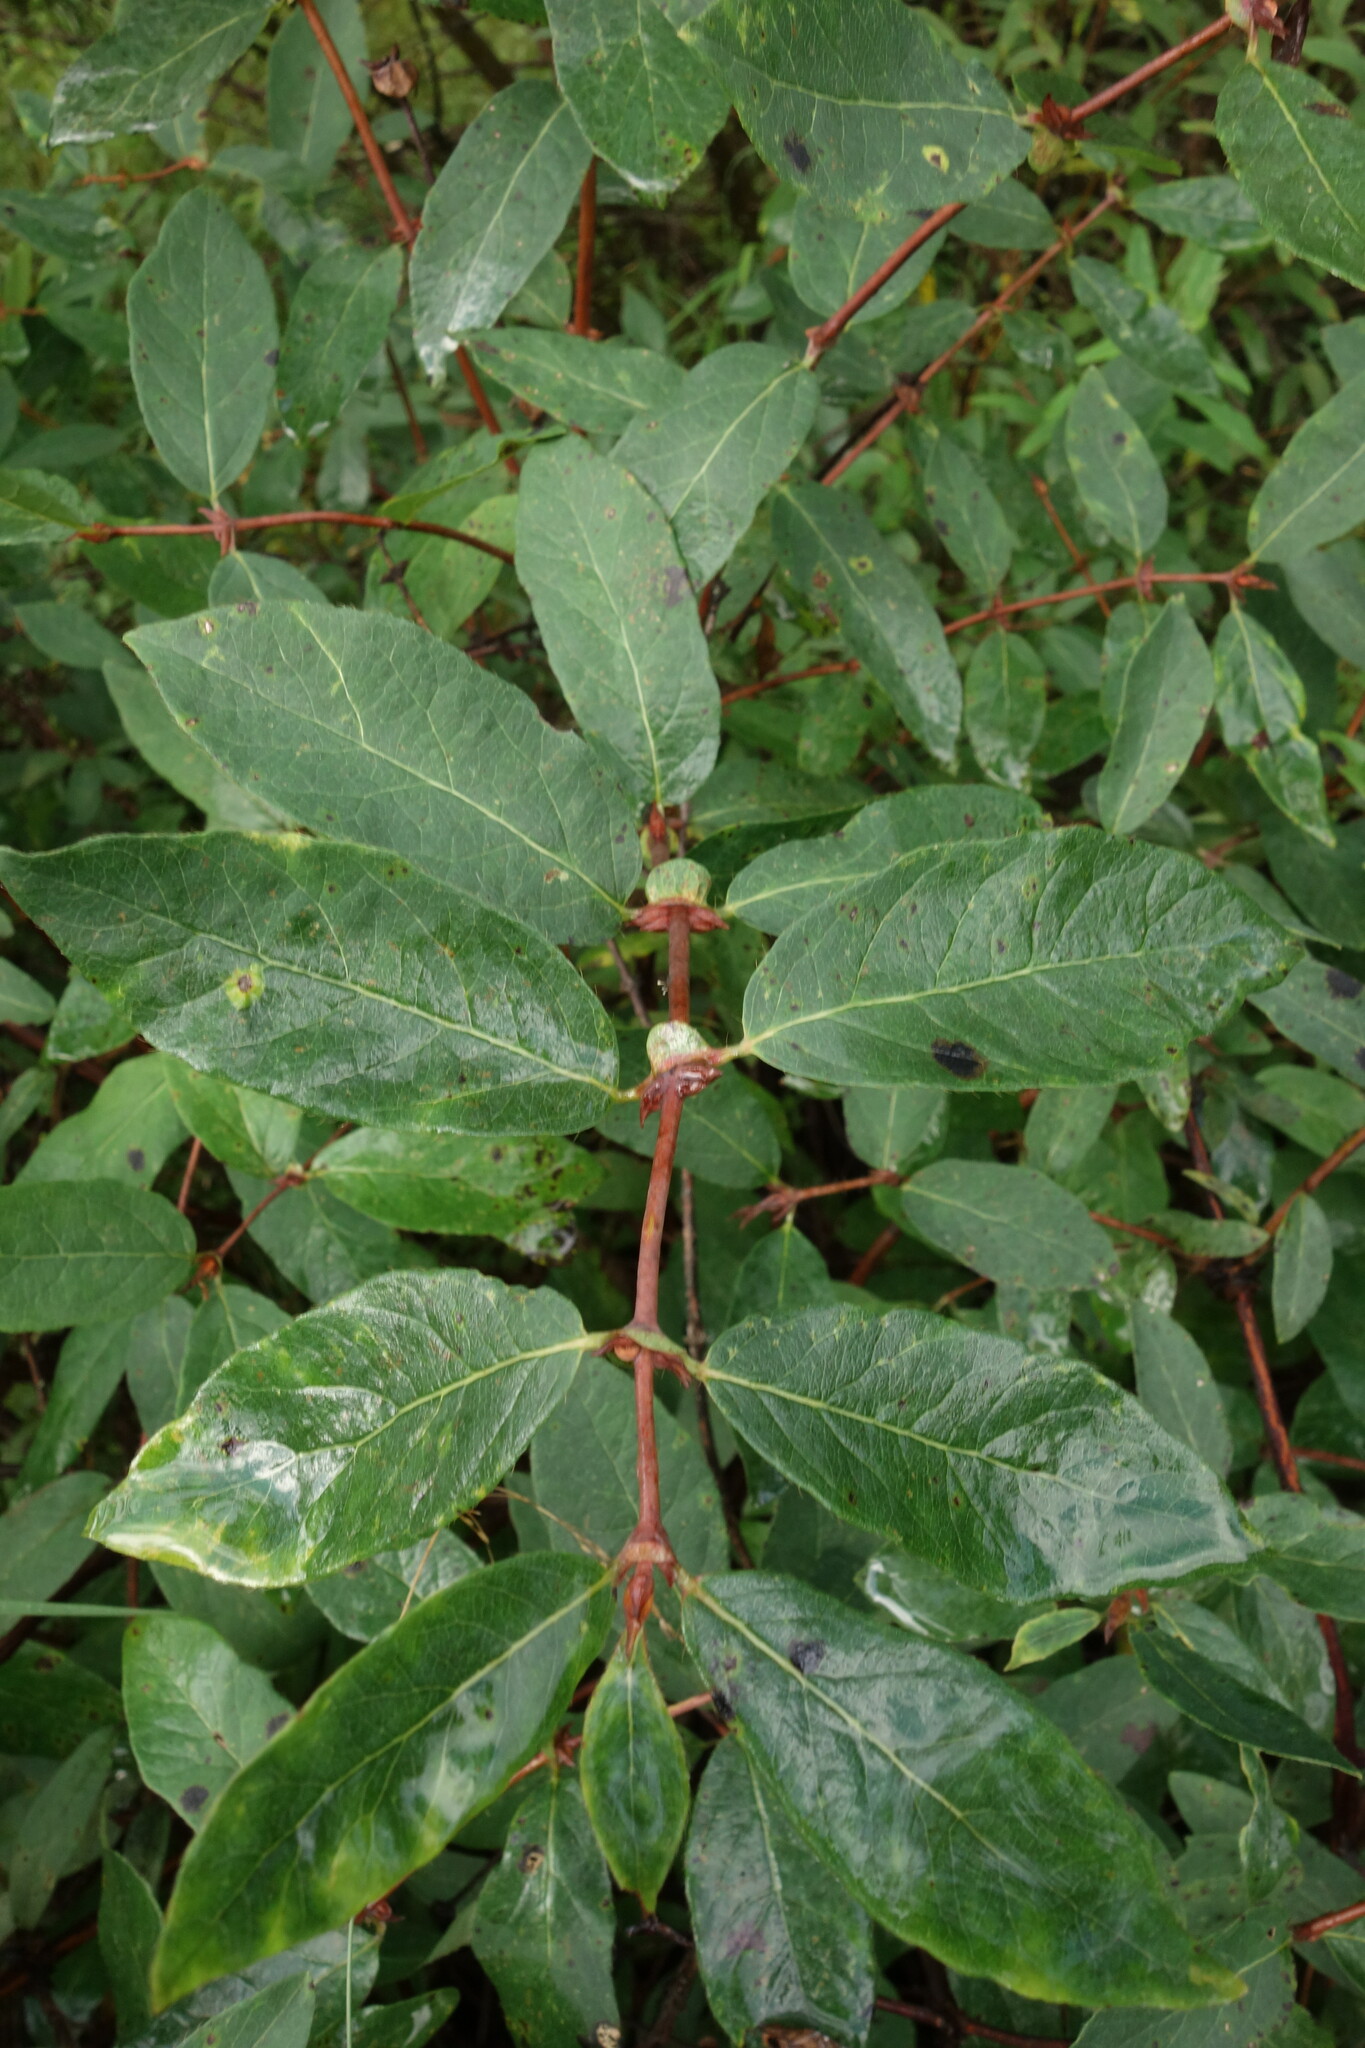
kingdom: Plantae
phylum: Tracheophyta
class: Magnoliopsida
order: Dipsacales
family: Caprifoliaceae
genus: Lonicera
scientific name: Lonicera caerulea
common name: Blue honeysuckle
